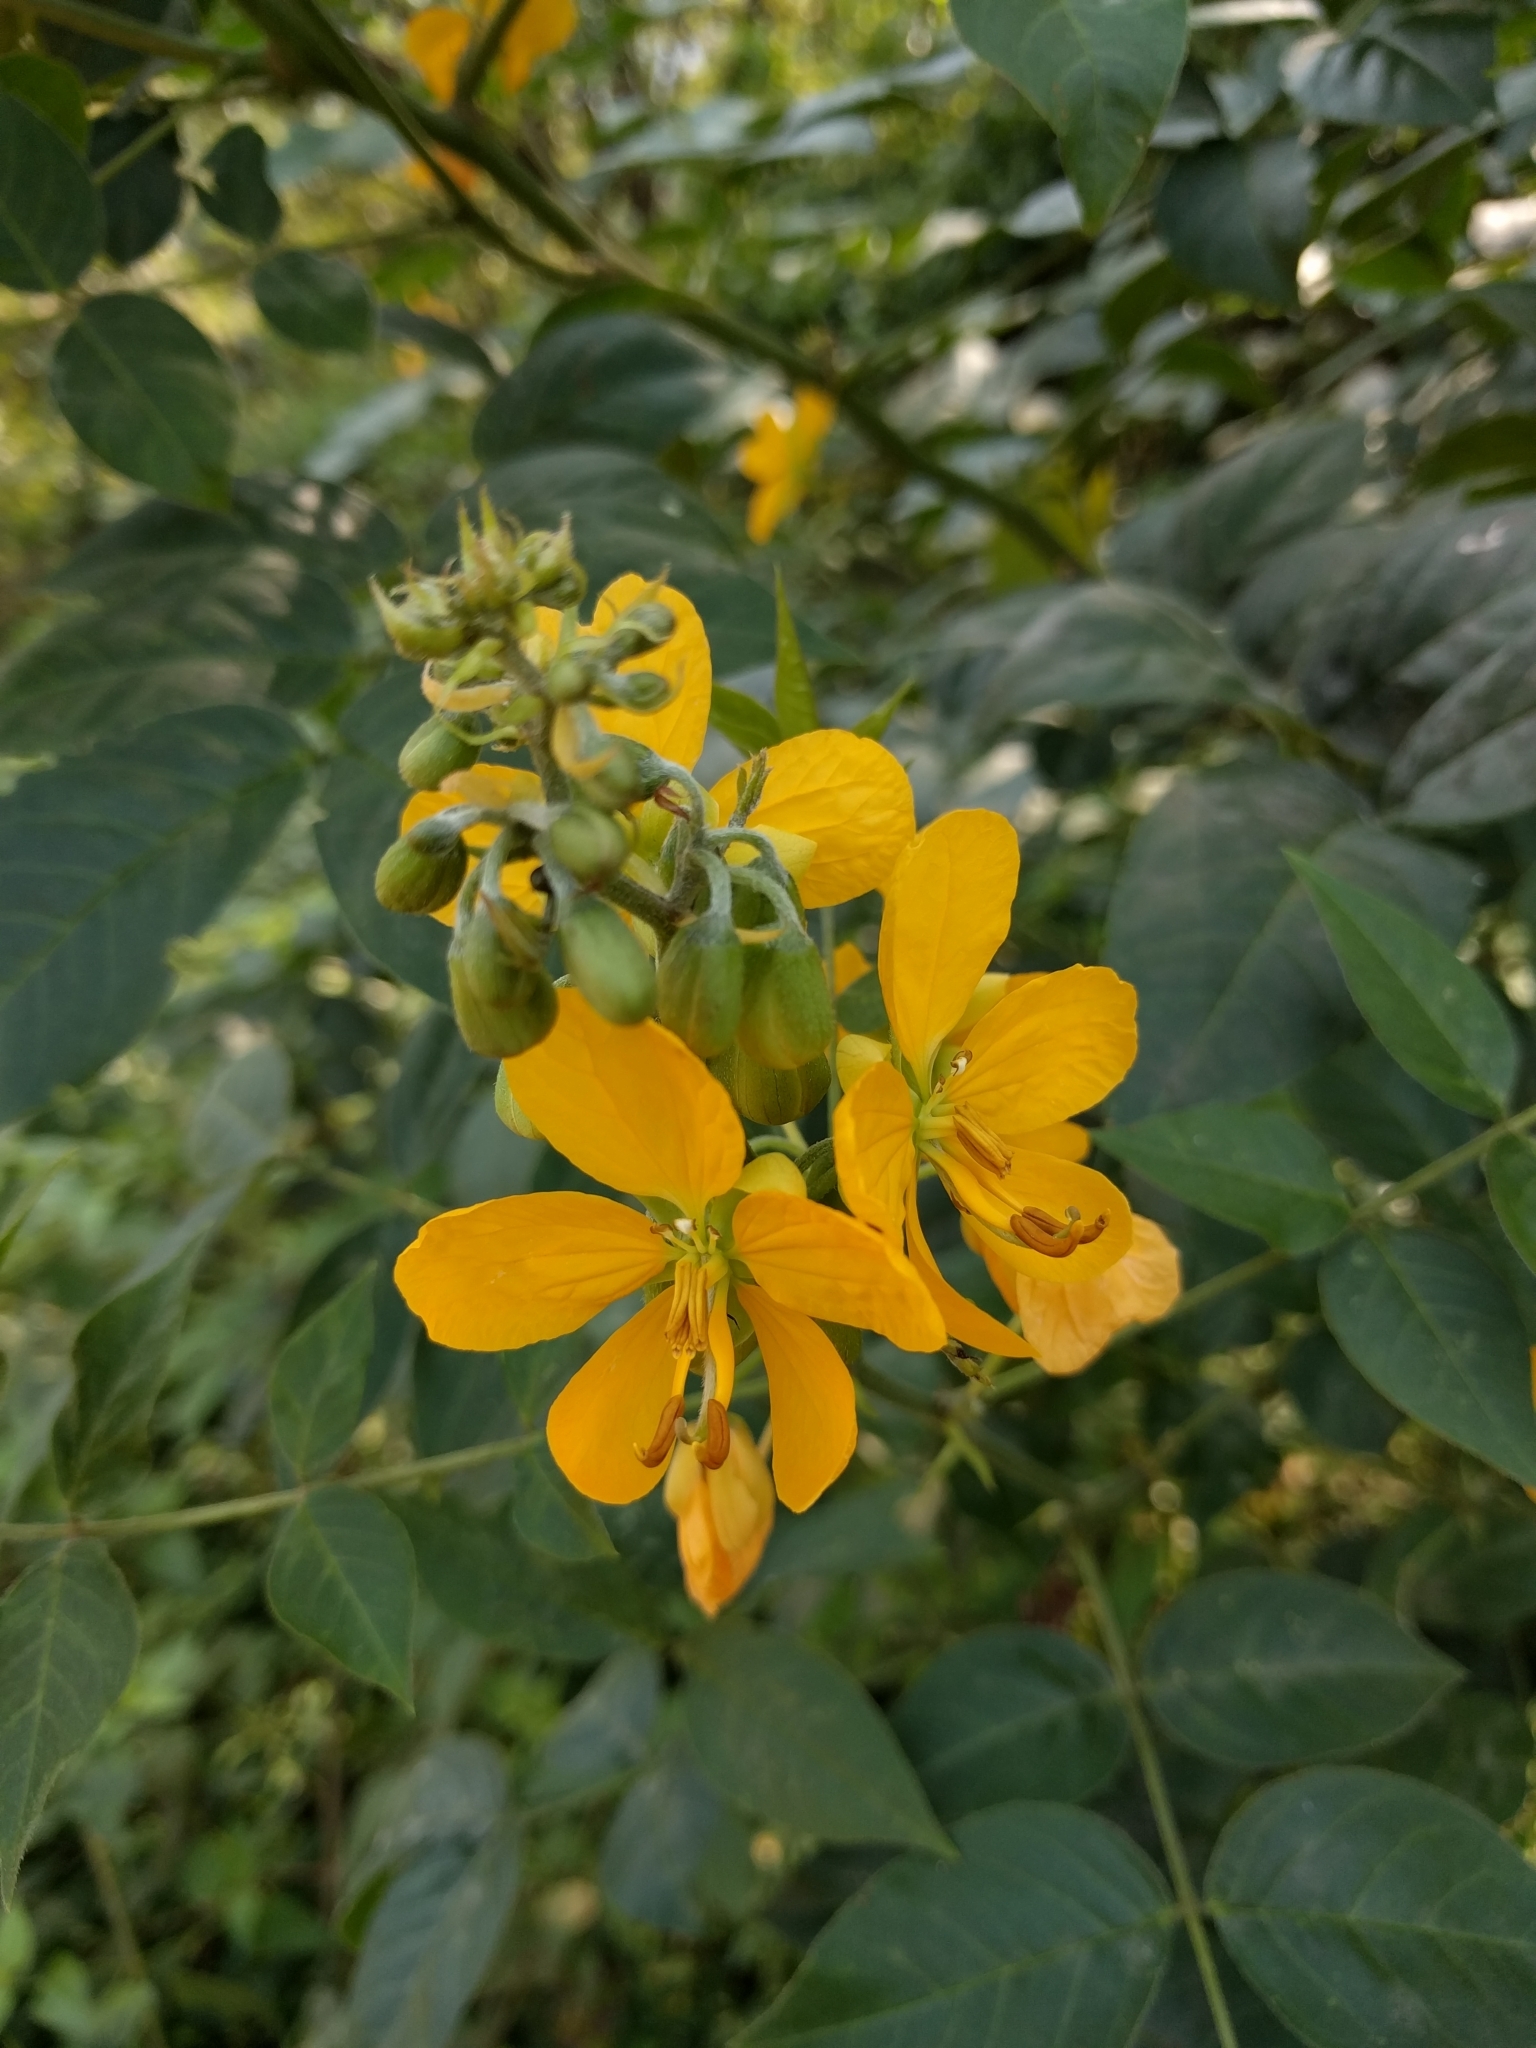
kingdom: Plantae
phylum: Tracheophyta
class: Magnoliopsida
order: Fabales
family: Fabaceae
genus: Senna
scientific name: Senna occidentalis
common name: Septicweed
